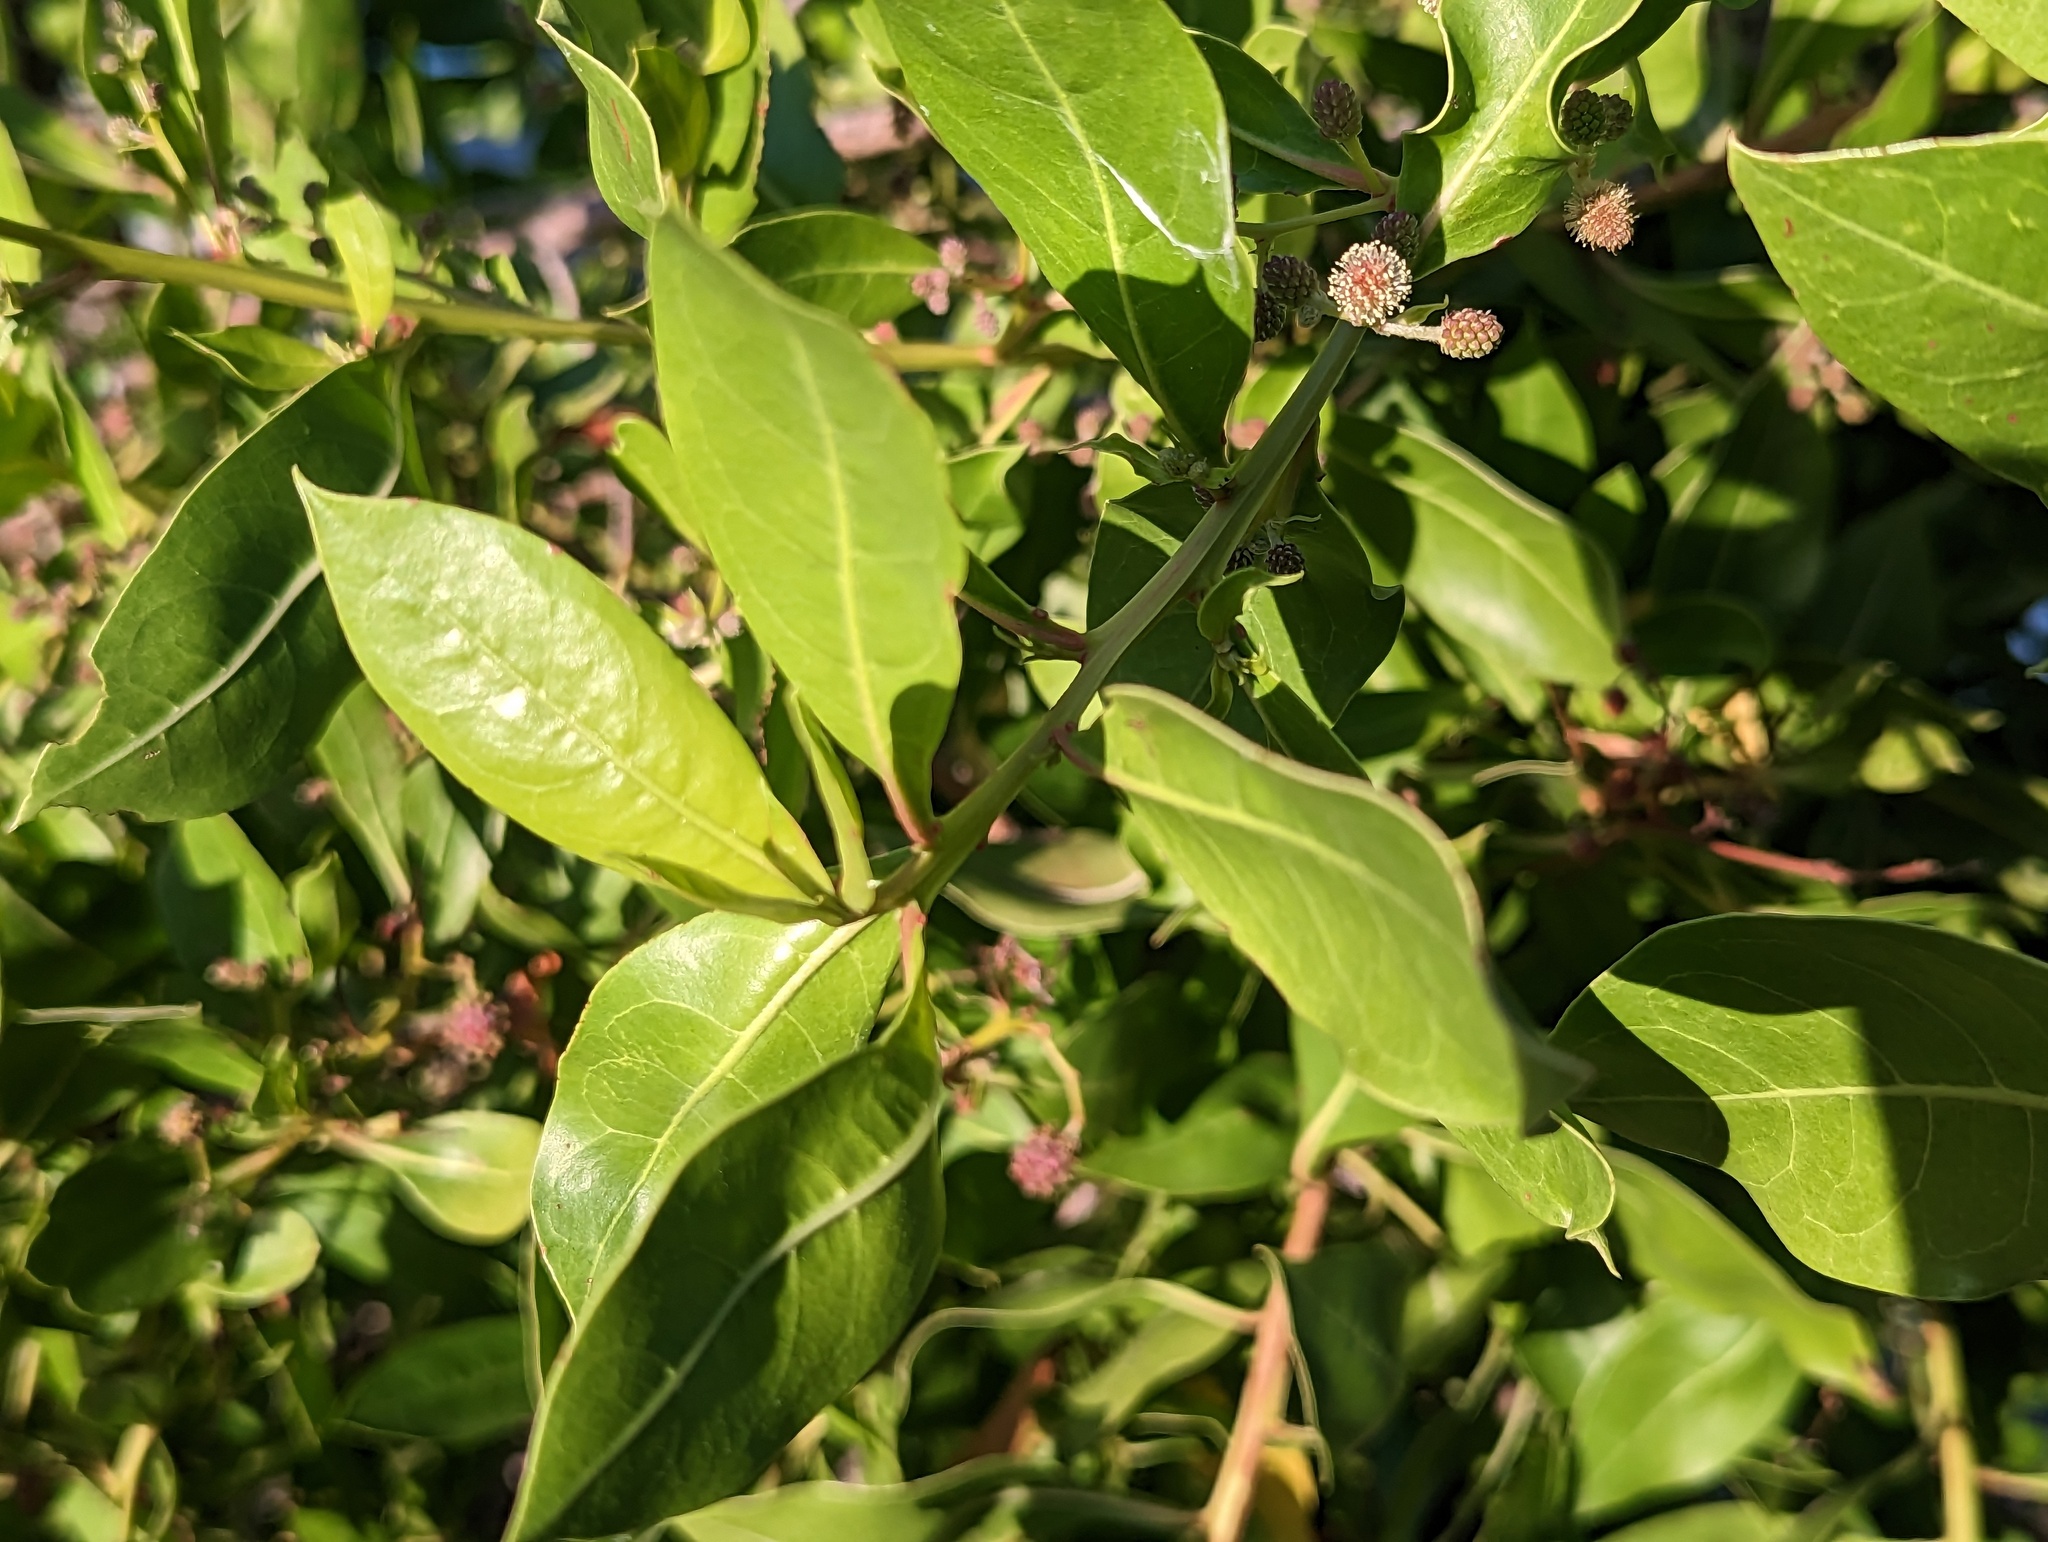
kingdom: Plantae
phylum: Tracheophyta
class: Magnoliopsida
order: Myrtales
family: Combretaceae
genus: Conocarpus
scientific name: Conocarpus erectus
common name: Button mangrove
